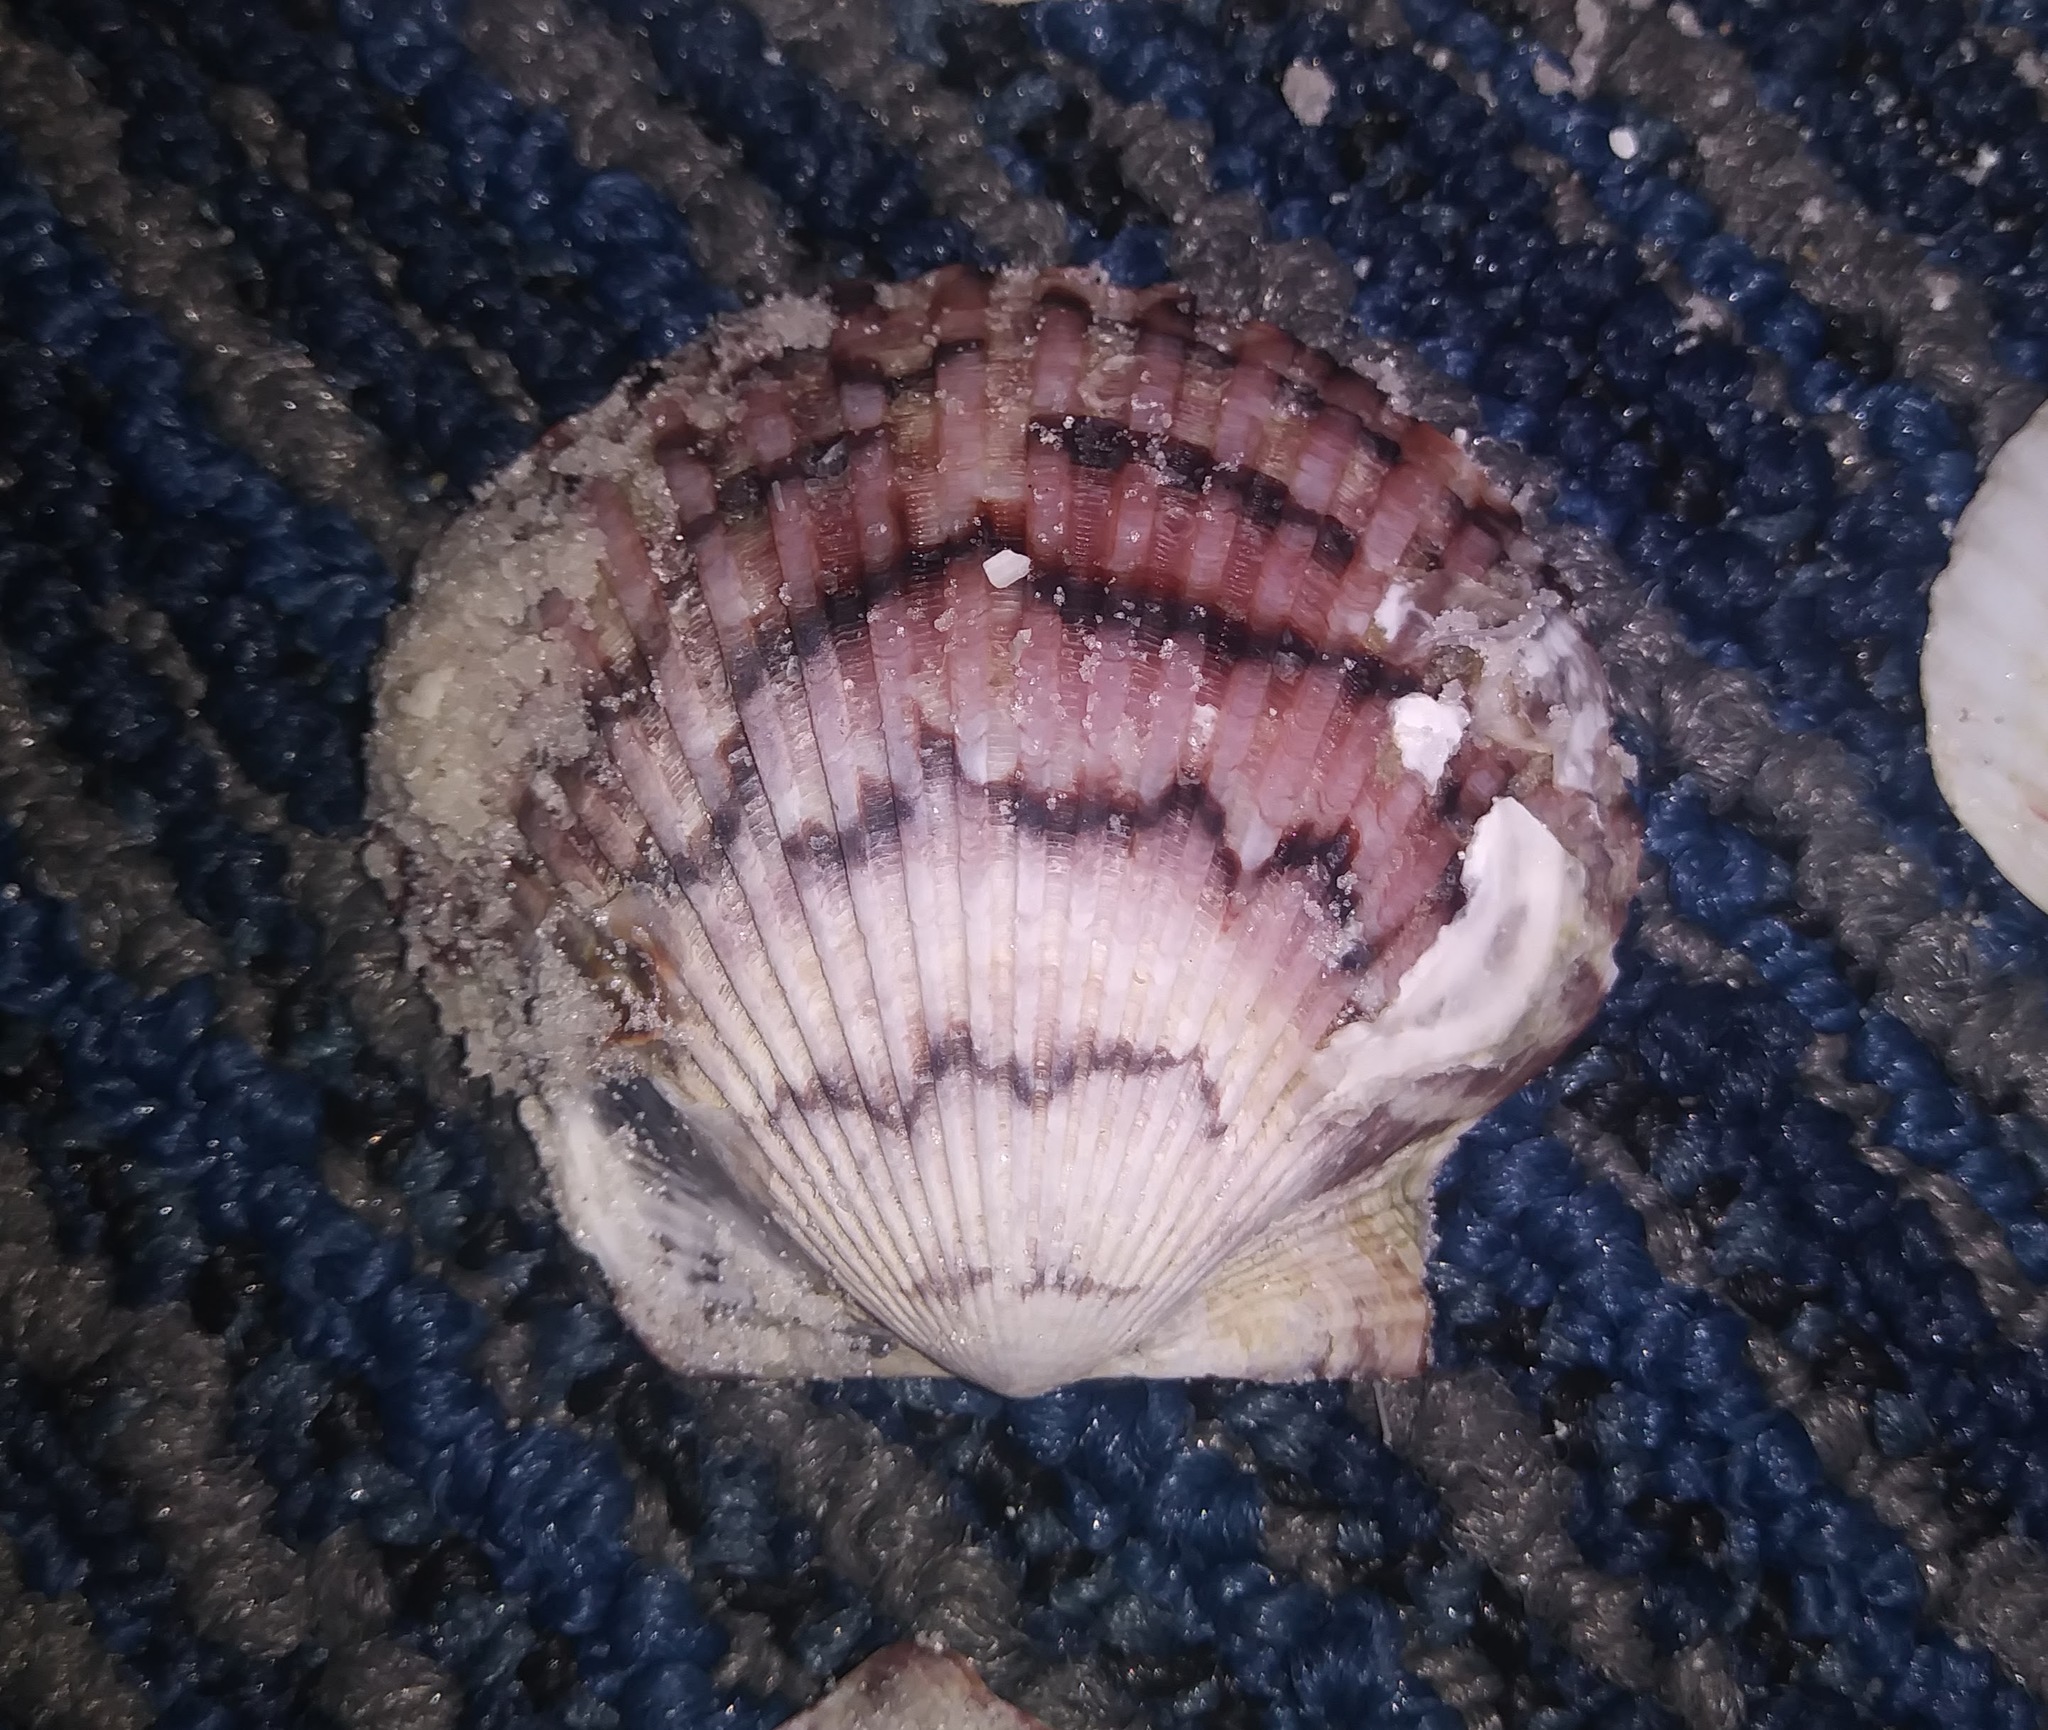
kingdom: Animalia
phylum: Mollusca
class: Bivalvia
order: Pectinida
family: Pectinidae
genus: Argopecten
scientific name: Argopecten gibbus
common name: Atlantic calico scallop
